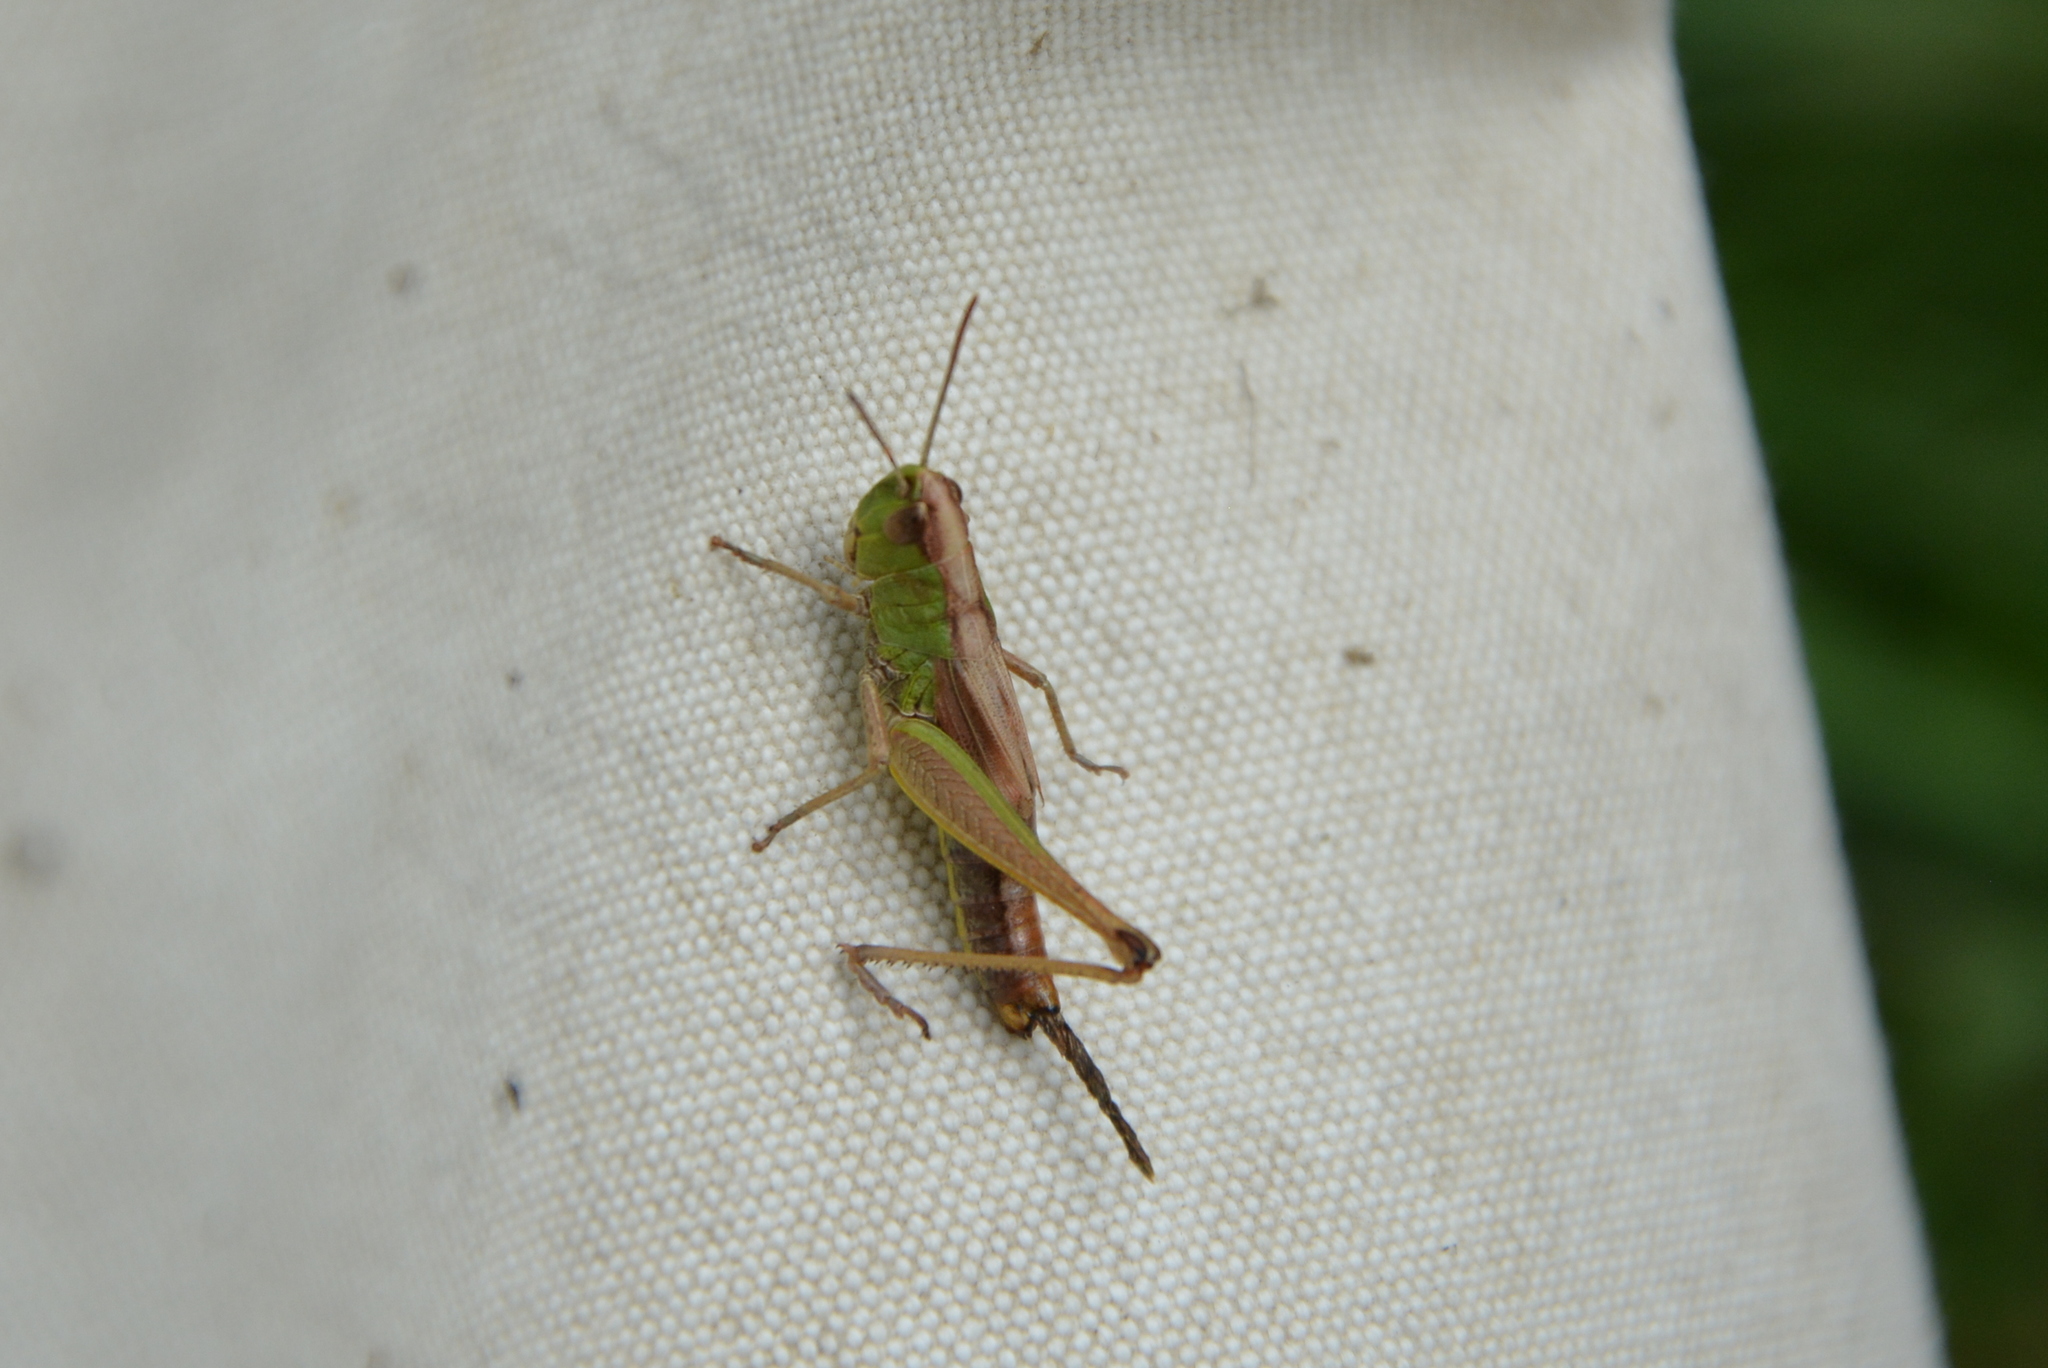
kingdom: Animalia
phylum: Arthropoda
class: Insecta
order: Orthoptera
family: Acrididae
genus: Pseudochorthippus
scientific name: Pseudochorthippus parallelus
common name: Meadow grasshopper
